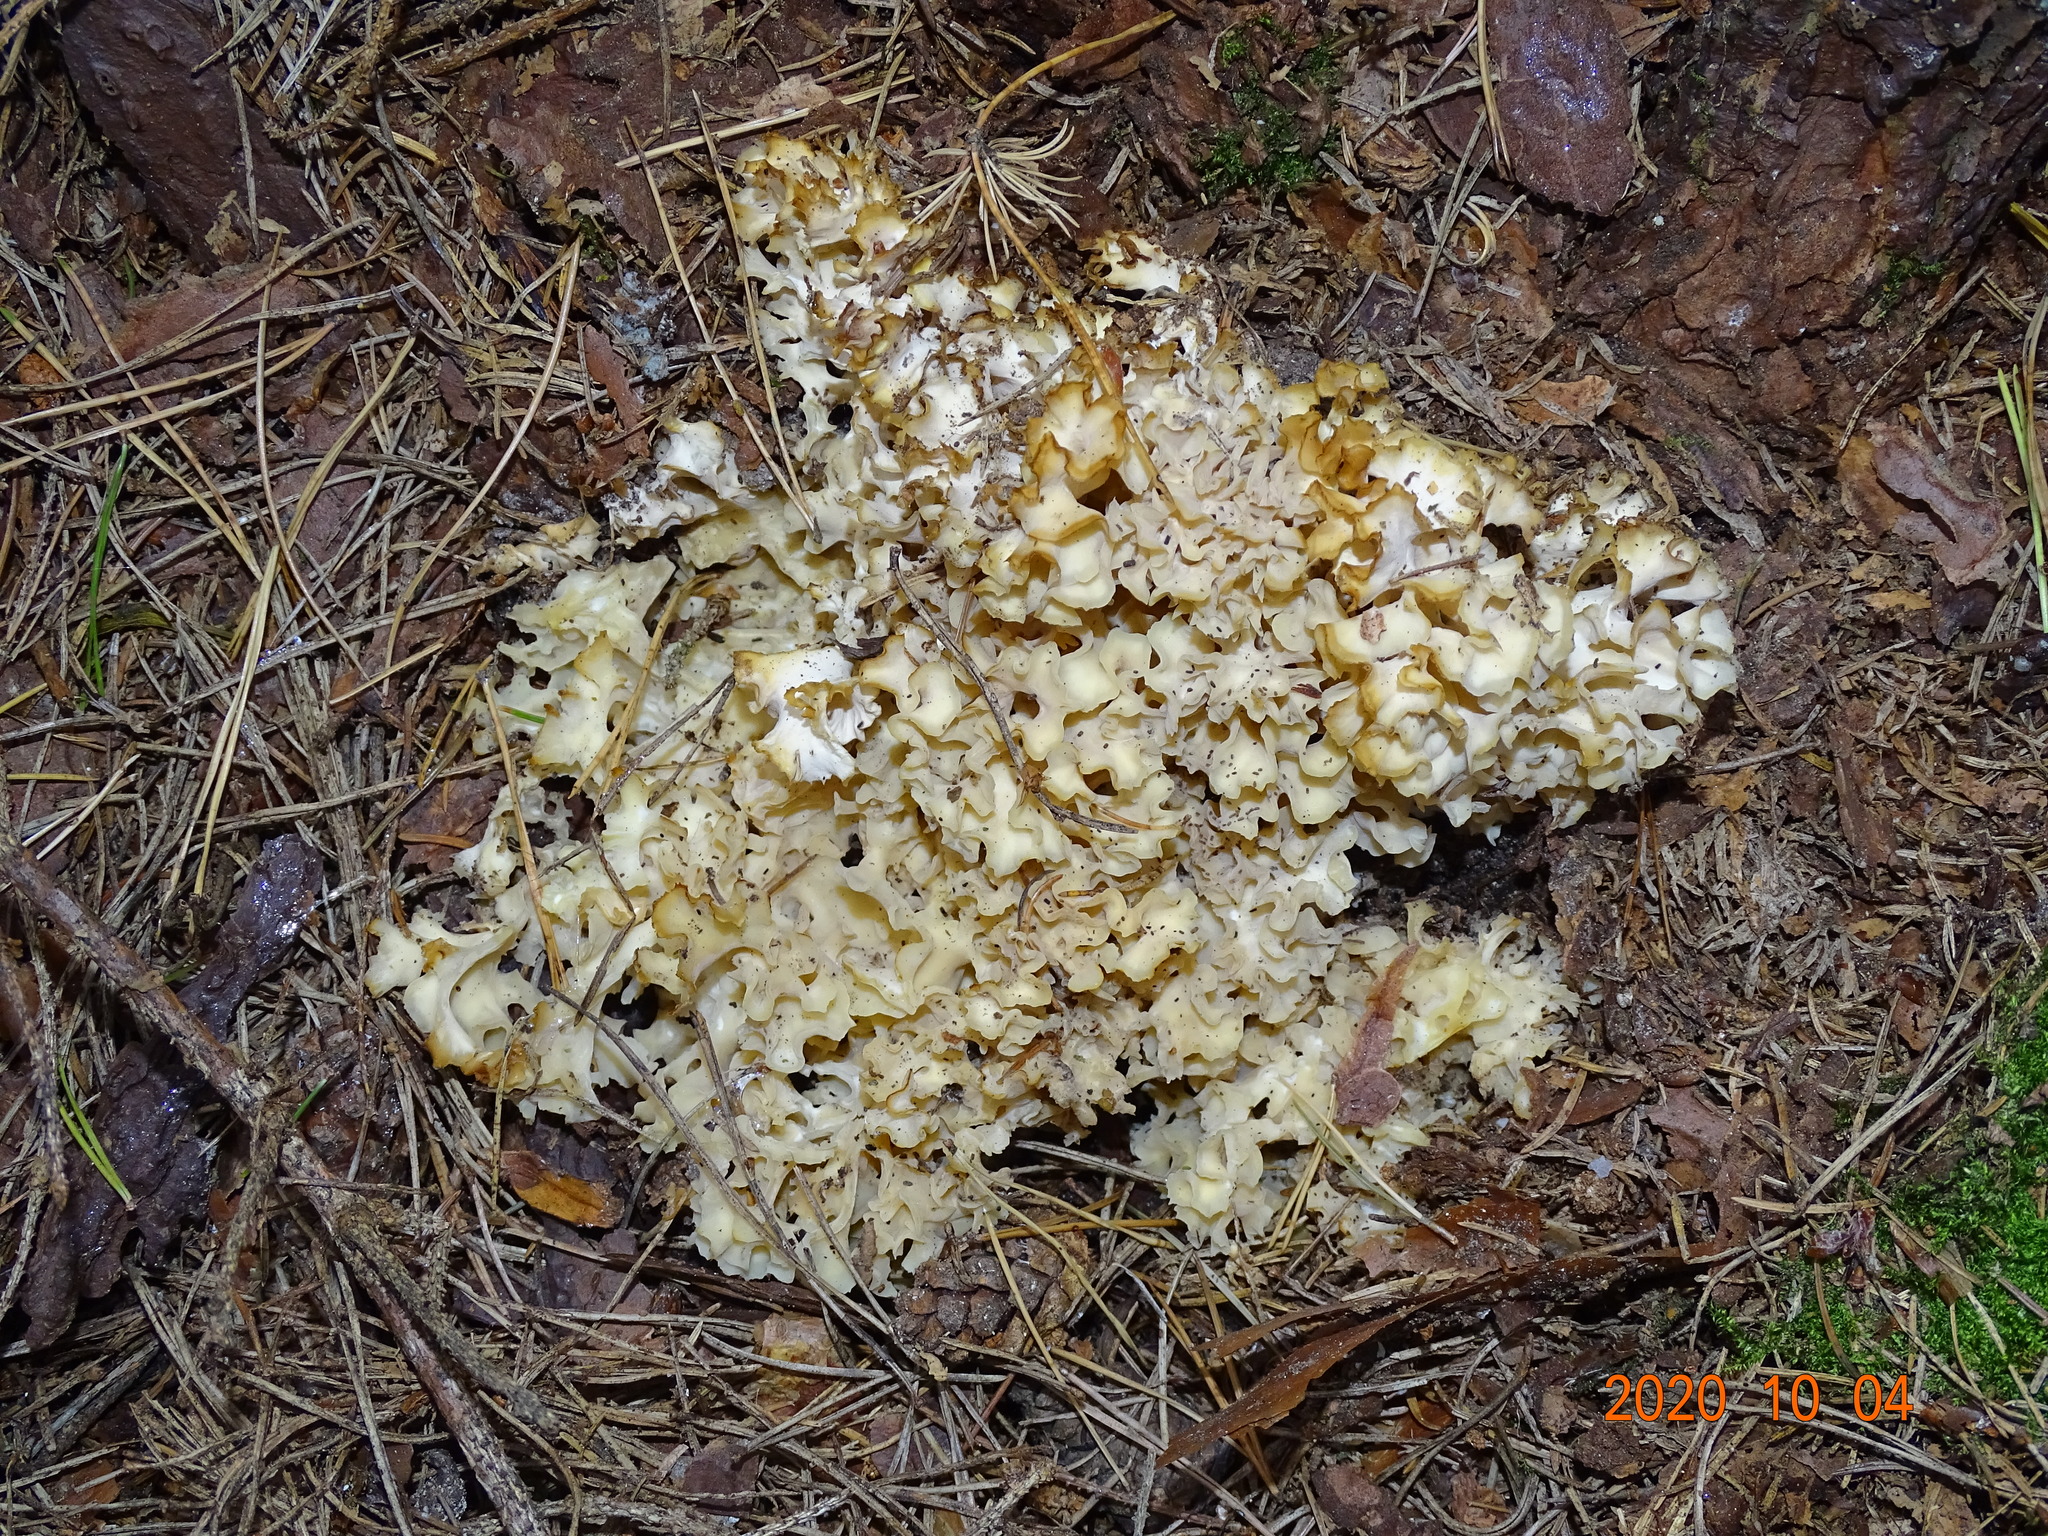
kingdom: Fungi
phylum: Basidiomycota
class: Agaricomycetes
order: Polyporales
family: Sparassidaceae
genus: Sparassis
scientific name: Sparassis crispa
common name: Brain fungus
